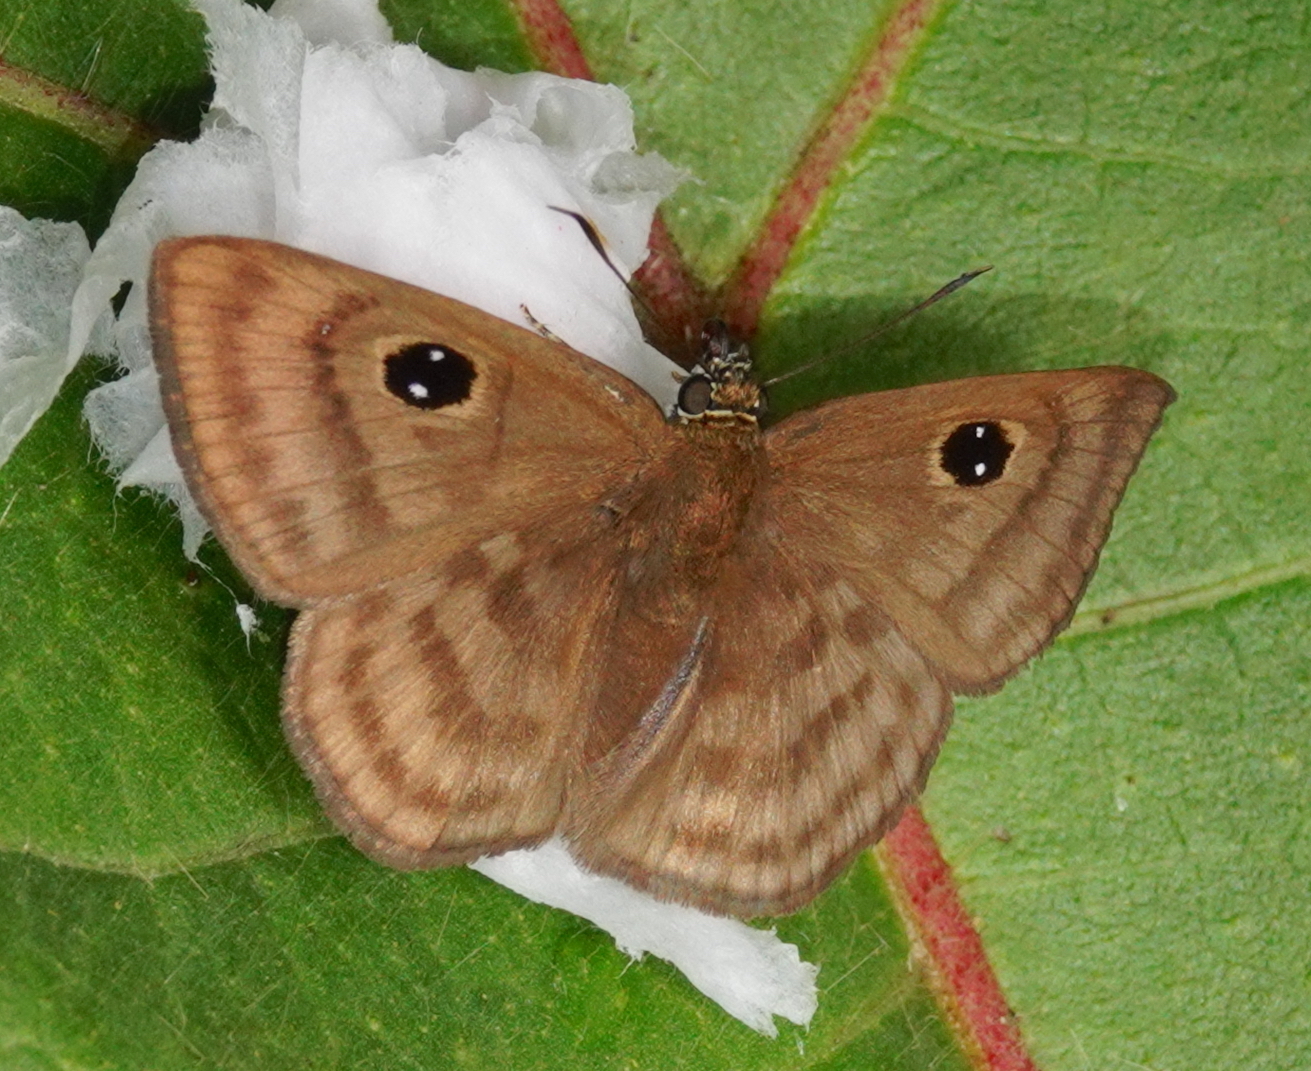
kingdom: Animalia
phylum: Arthropoda
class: Insecta
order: Lepidoptera
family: Hesperiidae
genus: Cyclosemia
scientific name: Cyclosemia anastomosis
